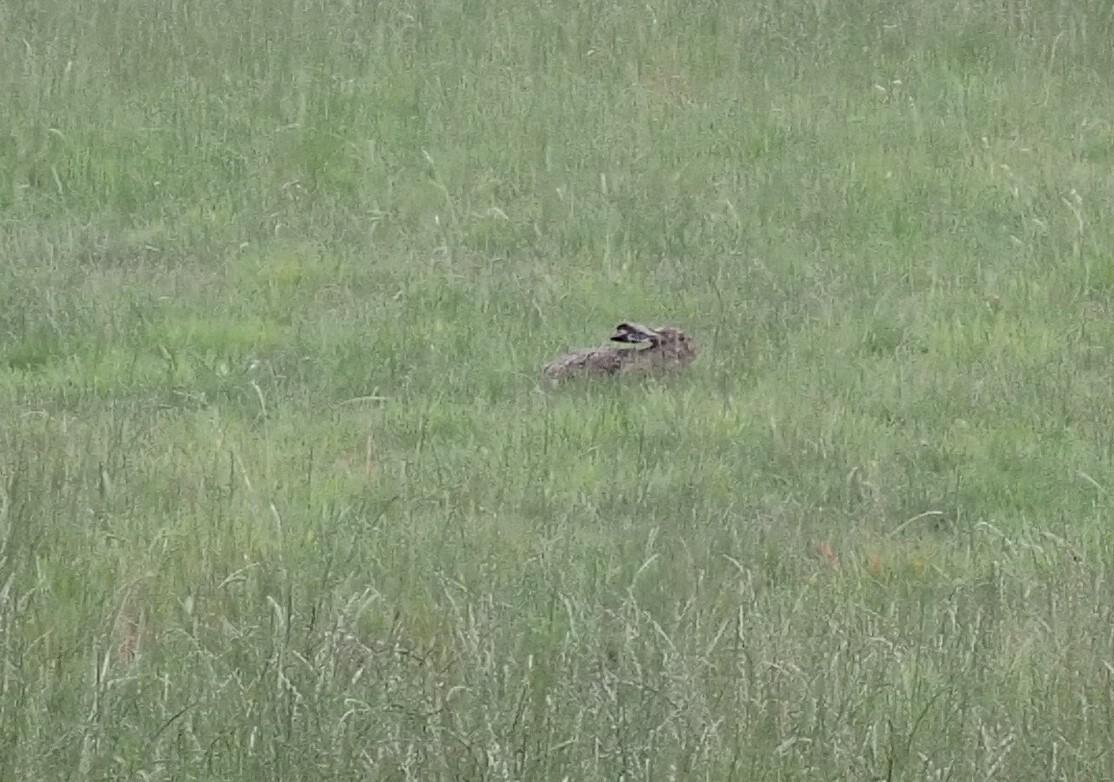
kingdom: Animalia
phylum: Chordata
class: Mammalia
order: Lagomorpha
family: Leporidae
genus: Lepus
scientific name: Lepus europaeus
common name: European hare
